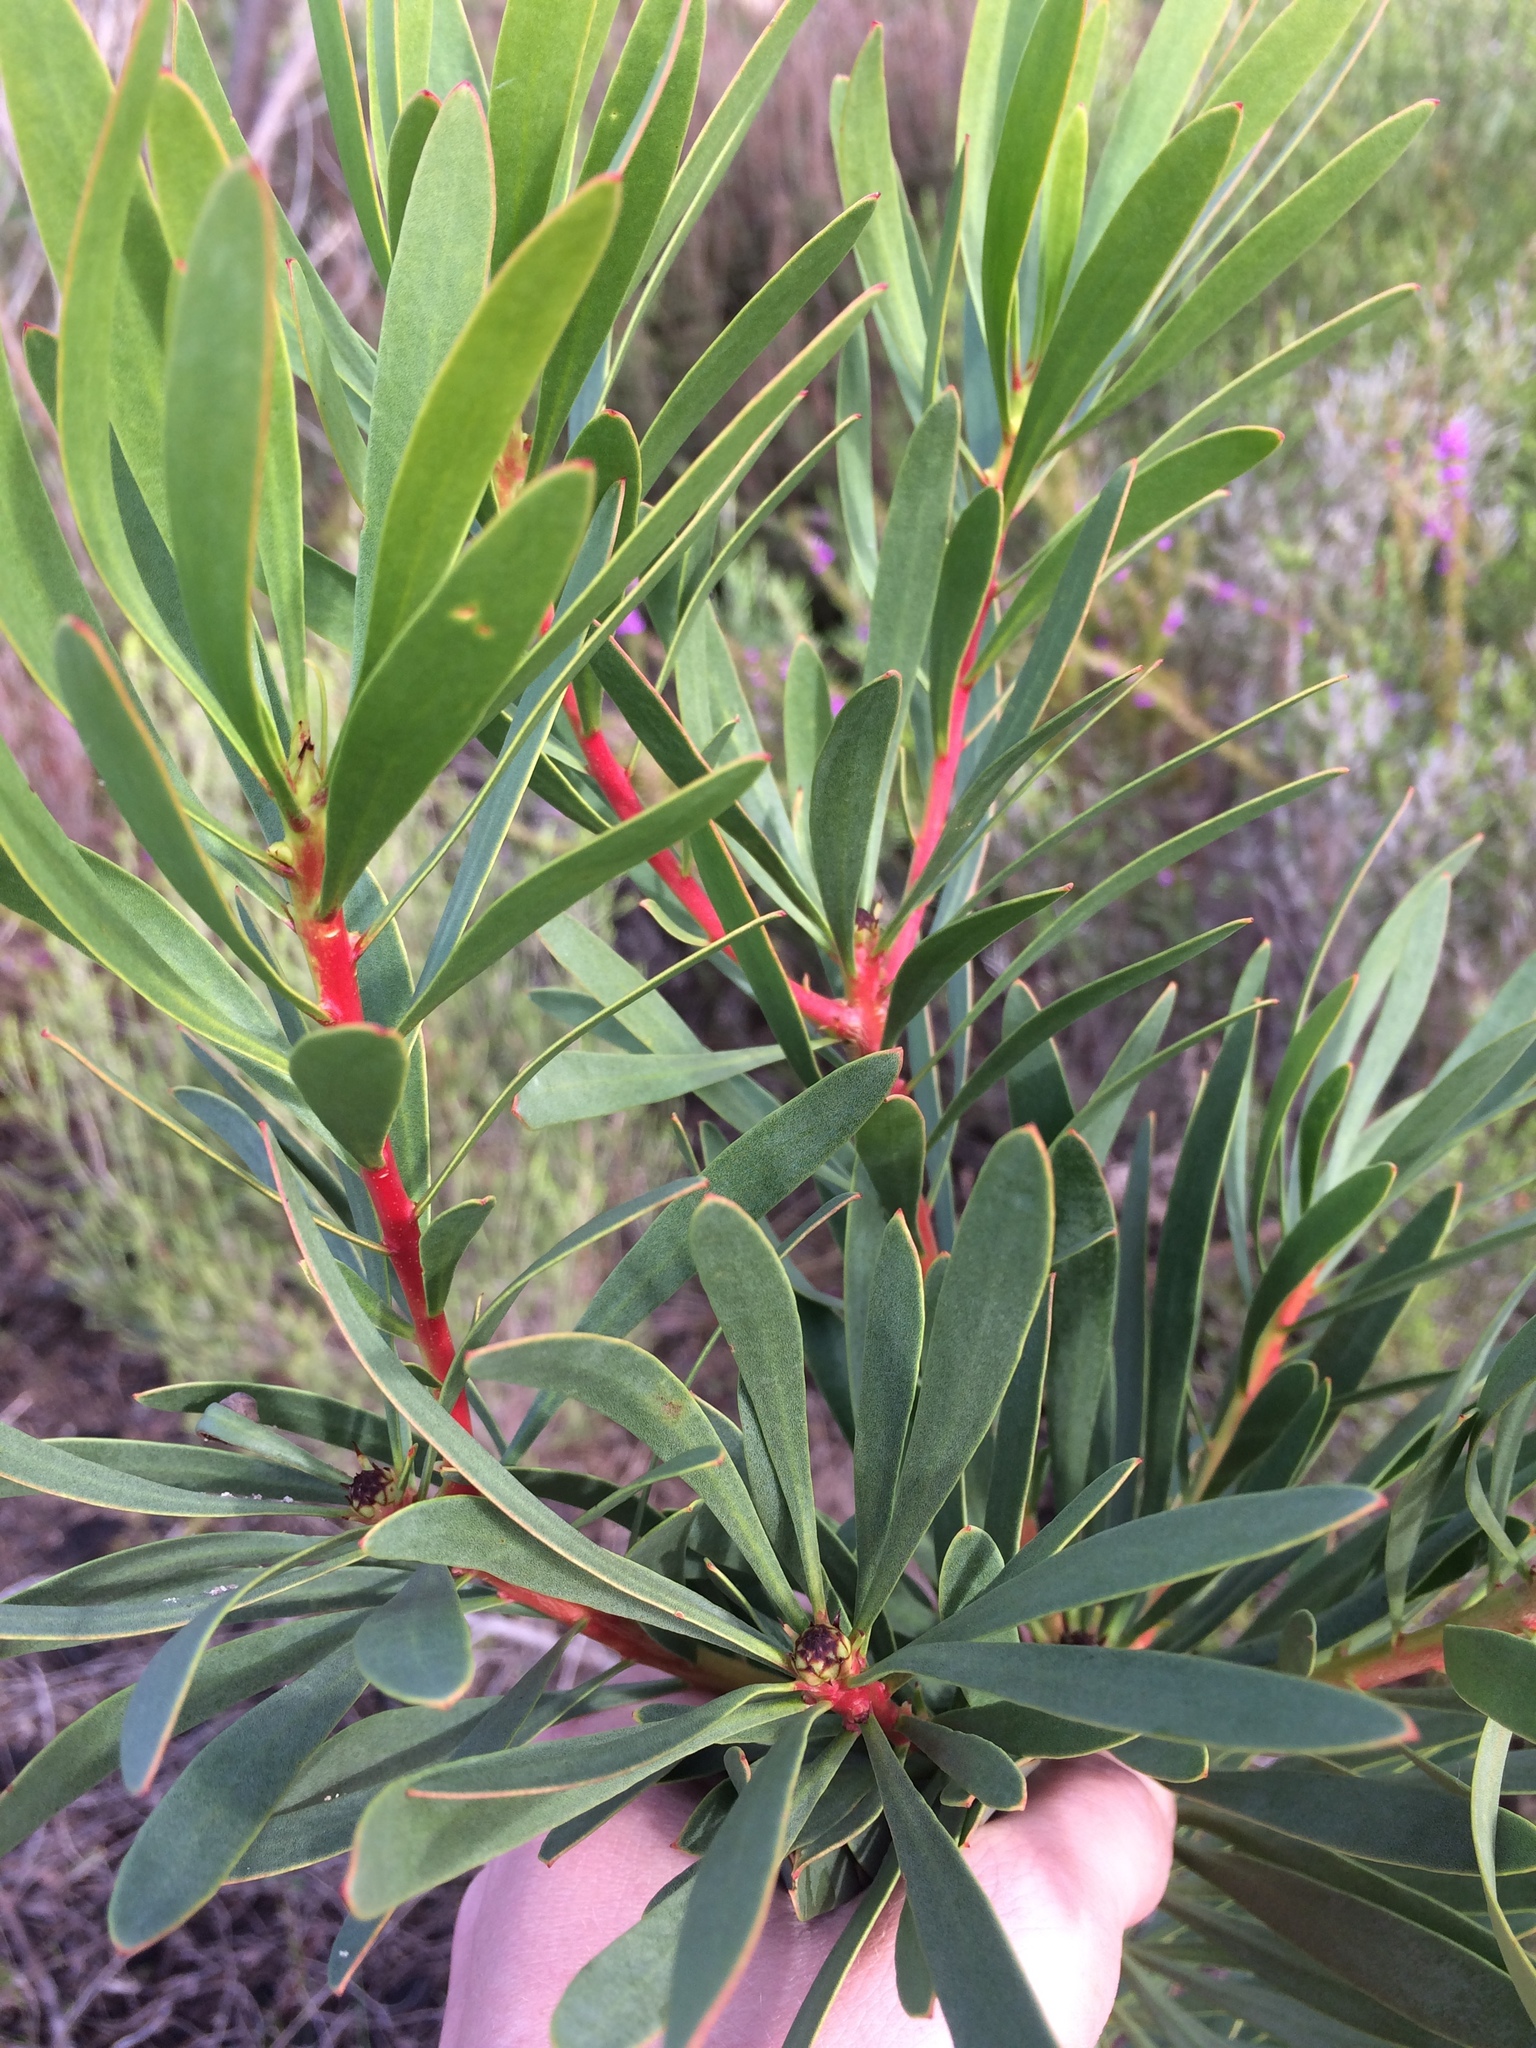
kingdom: Plantae
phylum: Tracheophyta
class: Magnoliopsida
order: Proteales
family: Proteaceae
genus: Protea
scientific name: Protea repens
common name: Sugarbush
